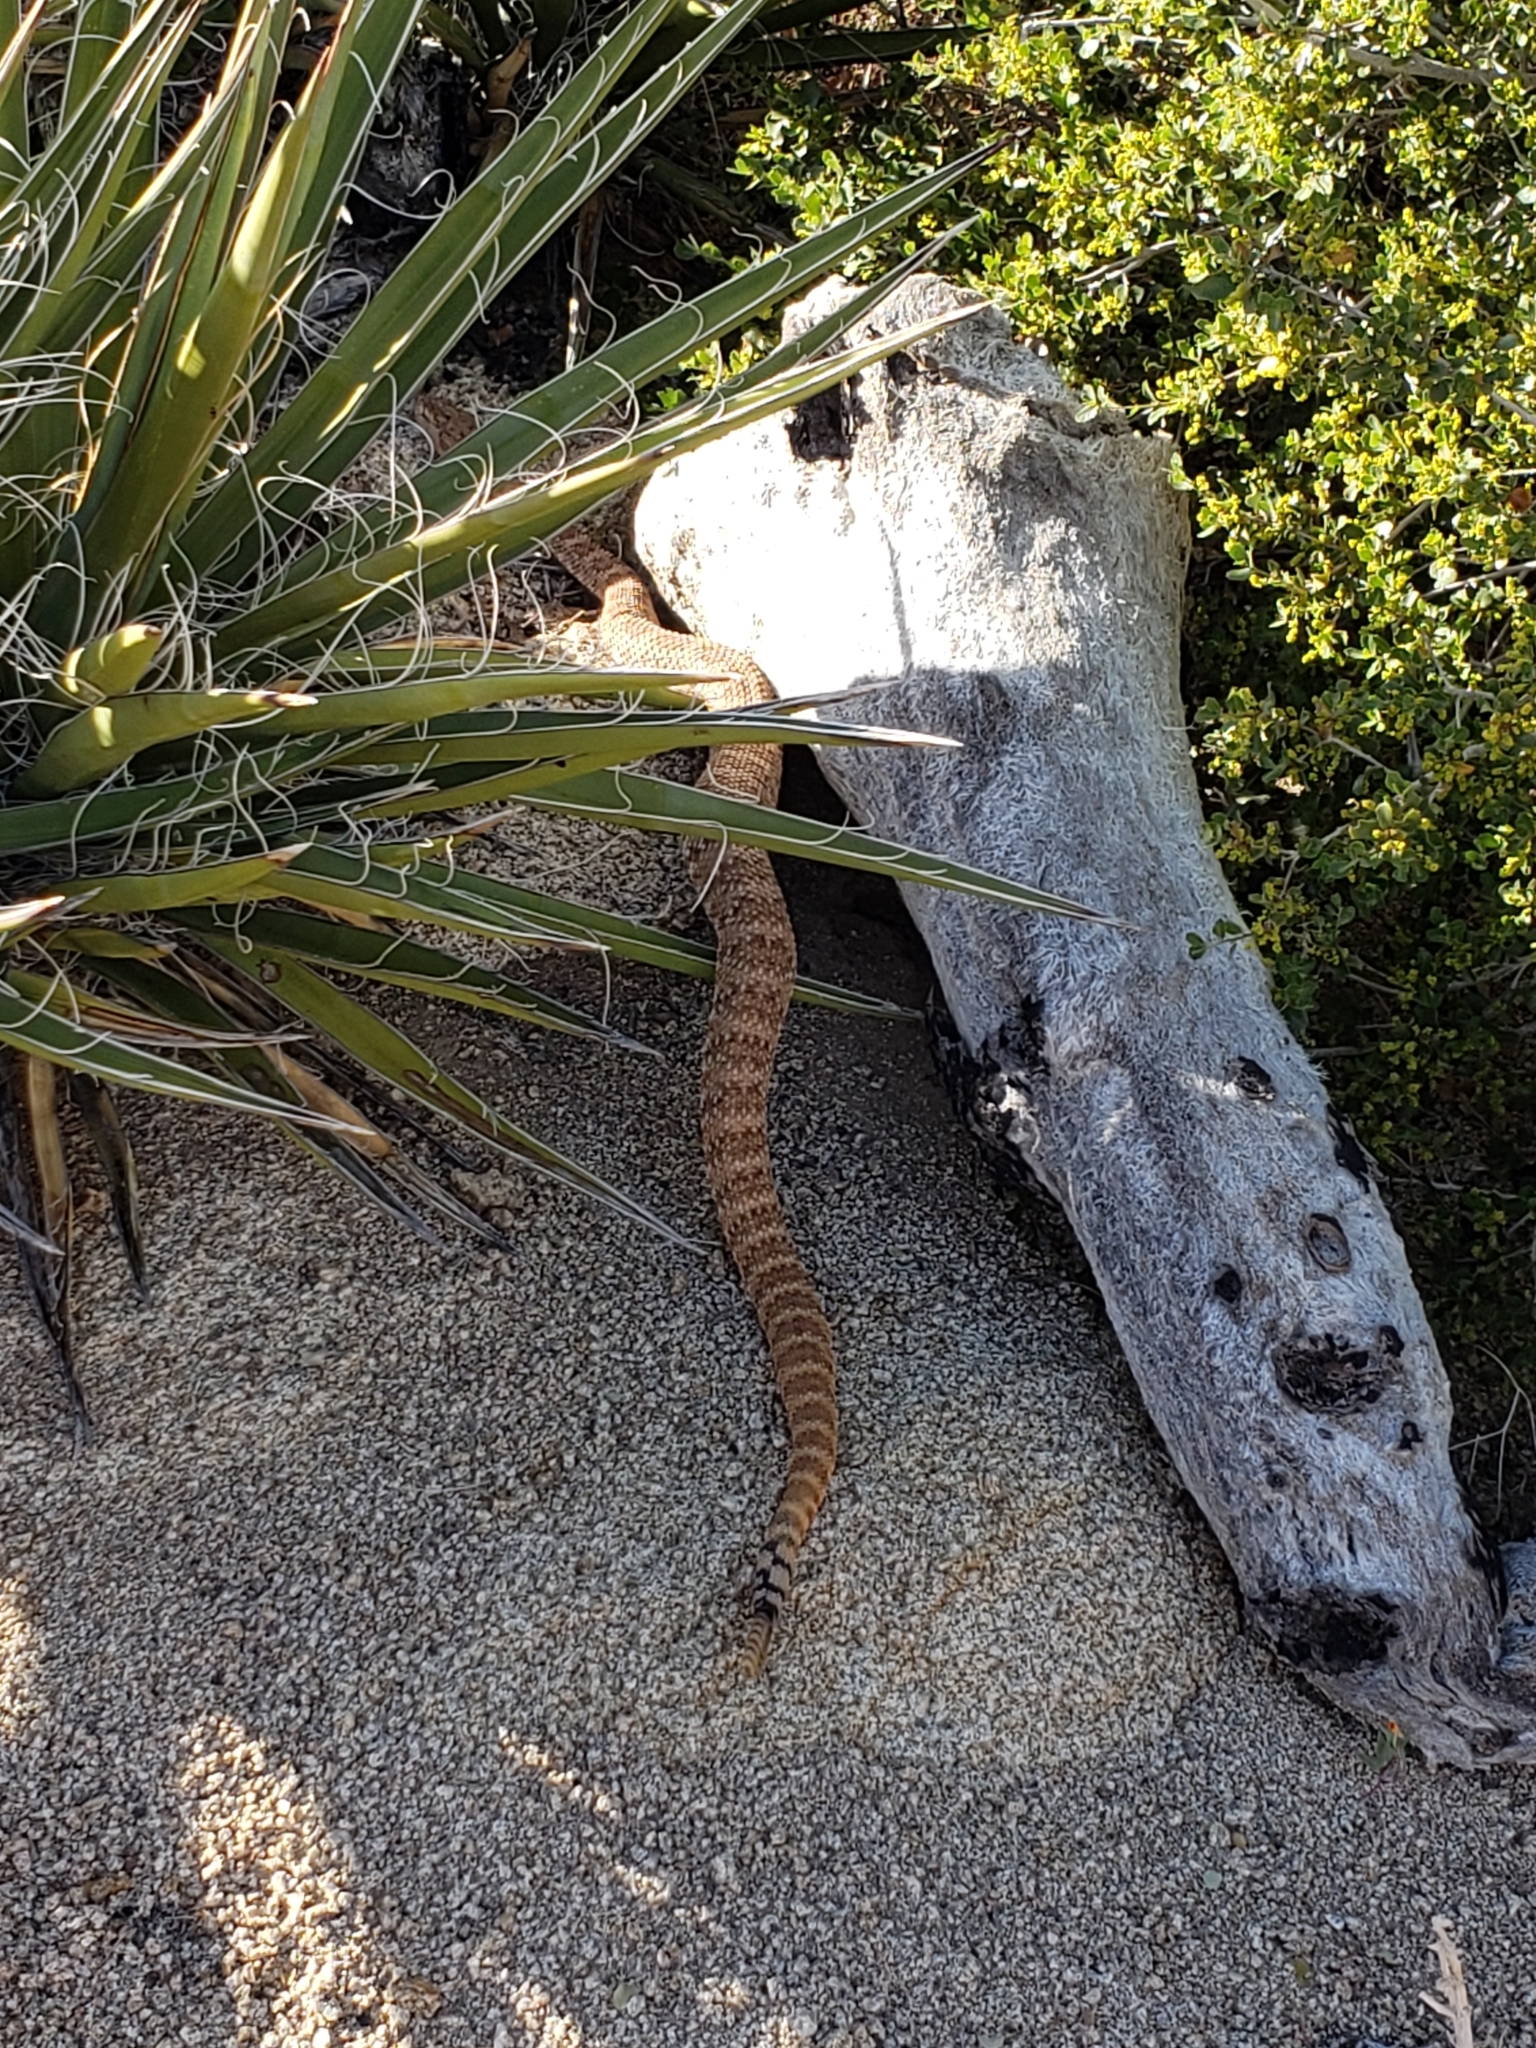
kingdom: Animalia
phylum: Chordata
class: Squamata
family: Viperidae
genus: Crotalus
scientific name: Crotalus pyrrhus
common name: Southwestern speckled rattlesnake
